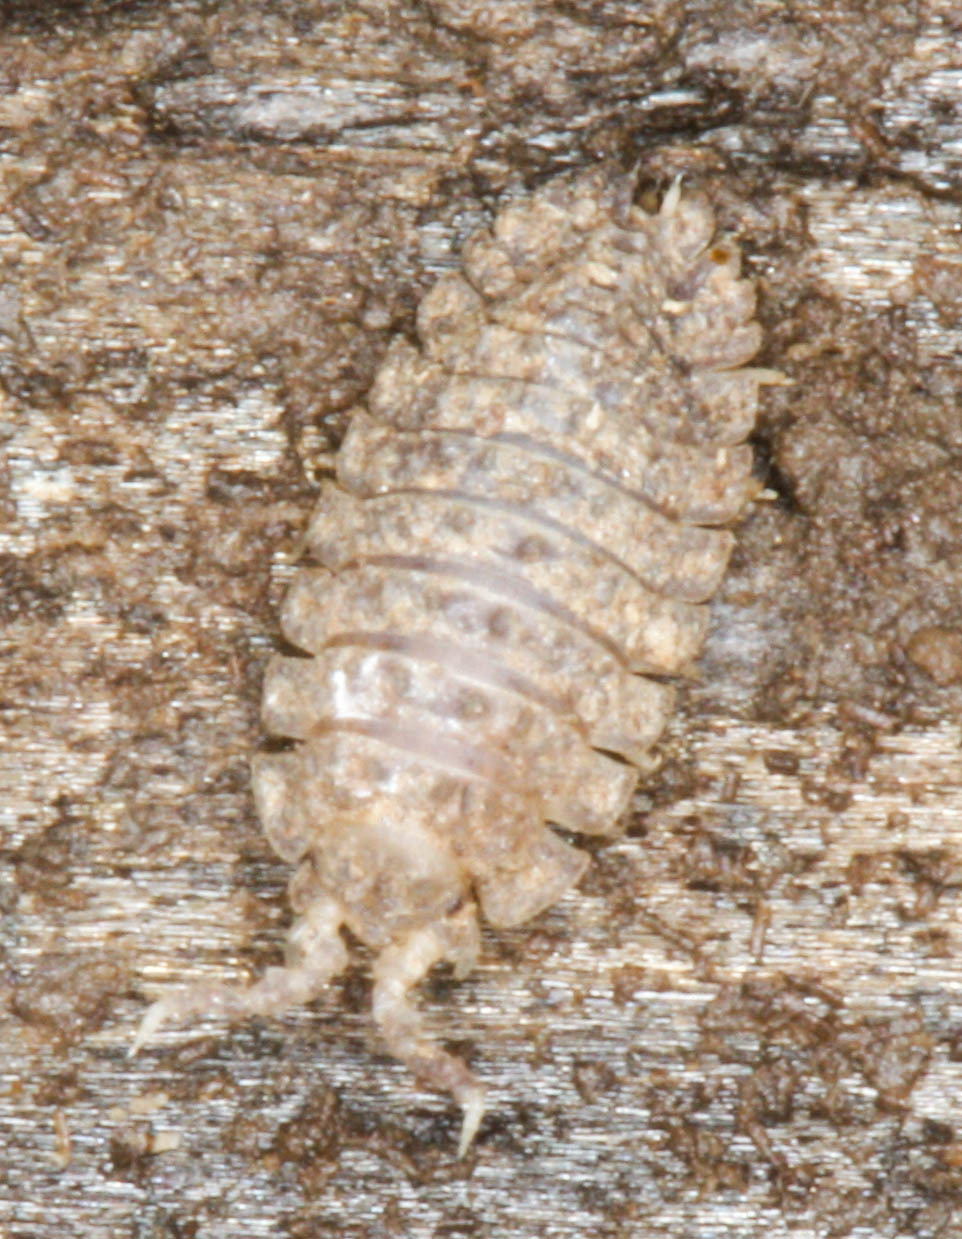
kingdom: Animalia
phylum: Arthropoda
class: Malacostraca
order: Isopoda
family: Detonidae
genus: Armadilloniscus
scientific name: Armadilloniscus coronacapitalis
